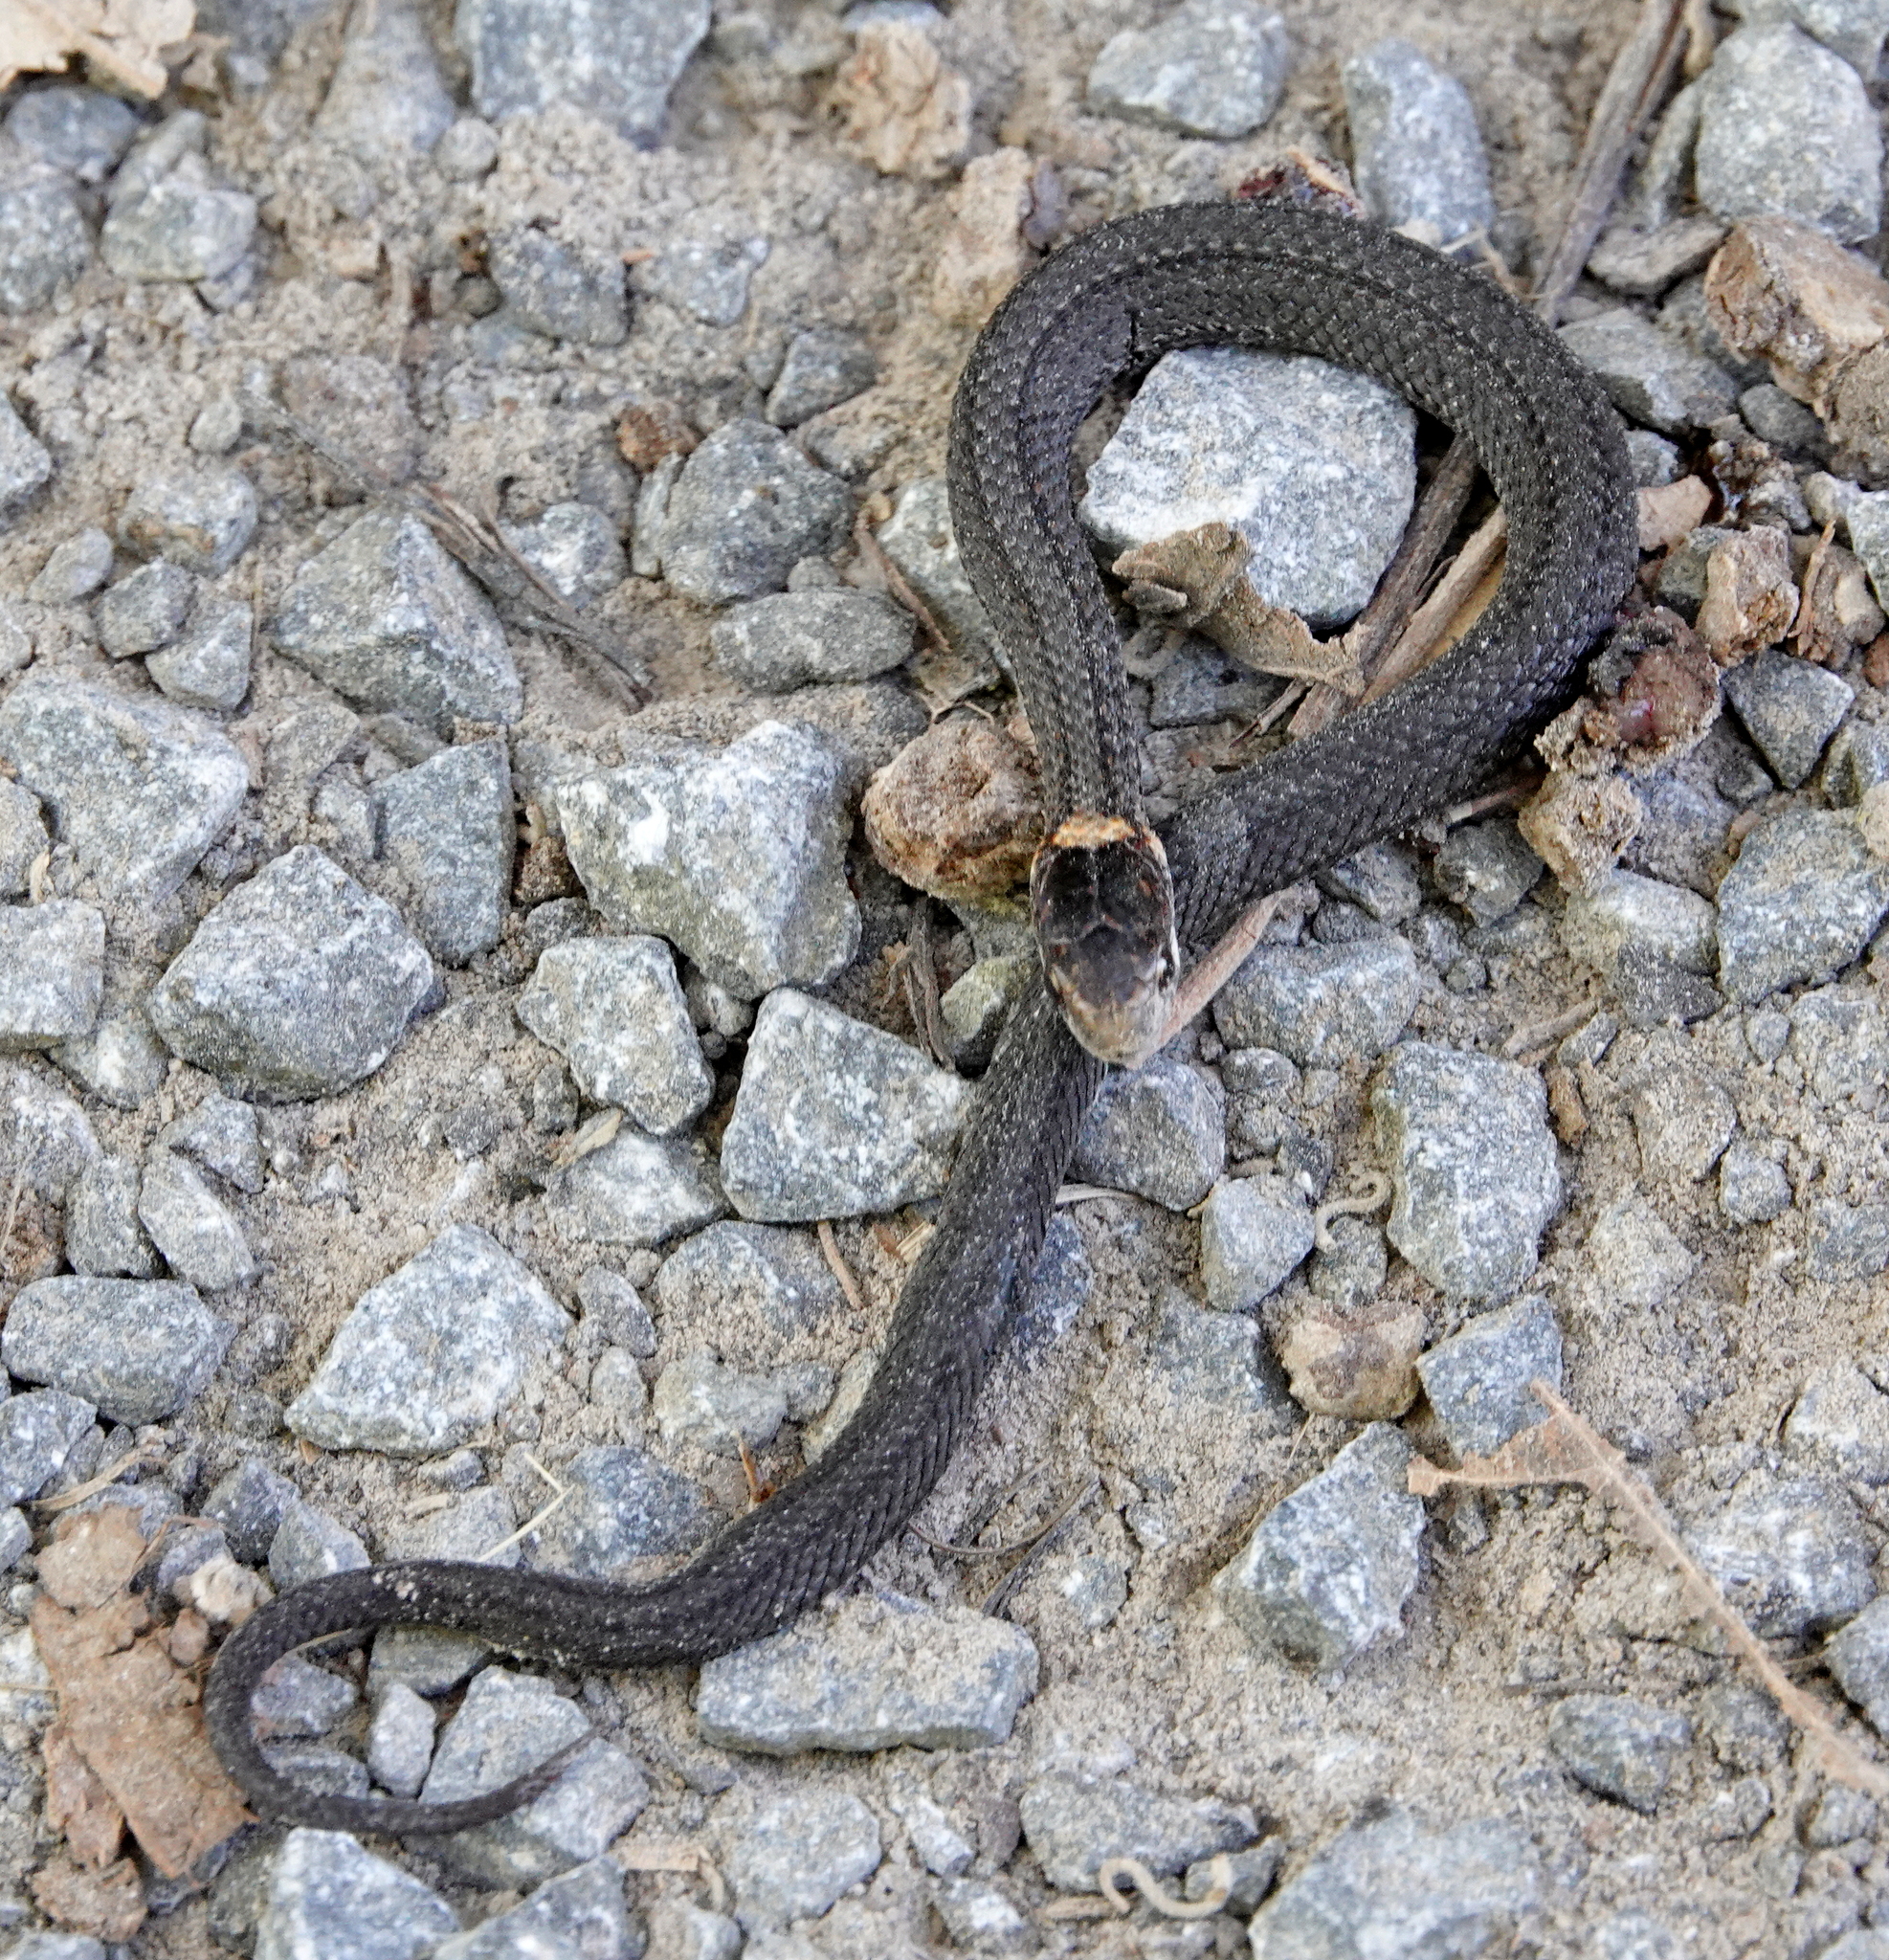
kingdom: Animalia
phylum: Chordata
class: Squamata
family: Colubridae
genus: Storeria
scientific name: Storeria occipitomaculata
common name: Redbelly snake
